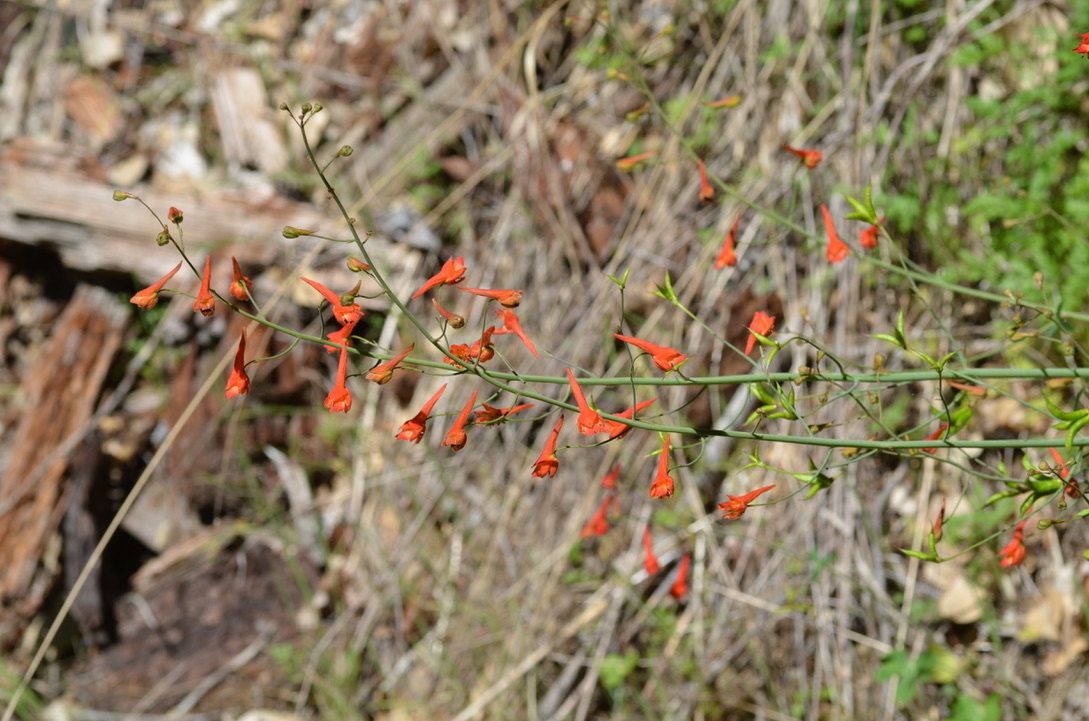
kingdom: Plantae
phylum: Tracheophyta
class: Magnoliopsida
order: Ranunculales
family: Ranunculaceae
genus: Delphinium
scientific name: Delphinium nudicaule
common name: Red larkspur
